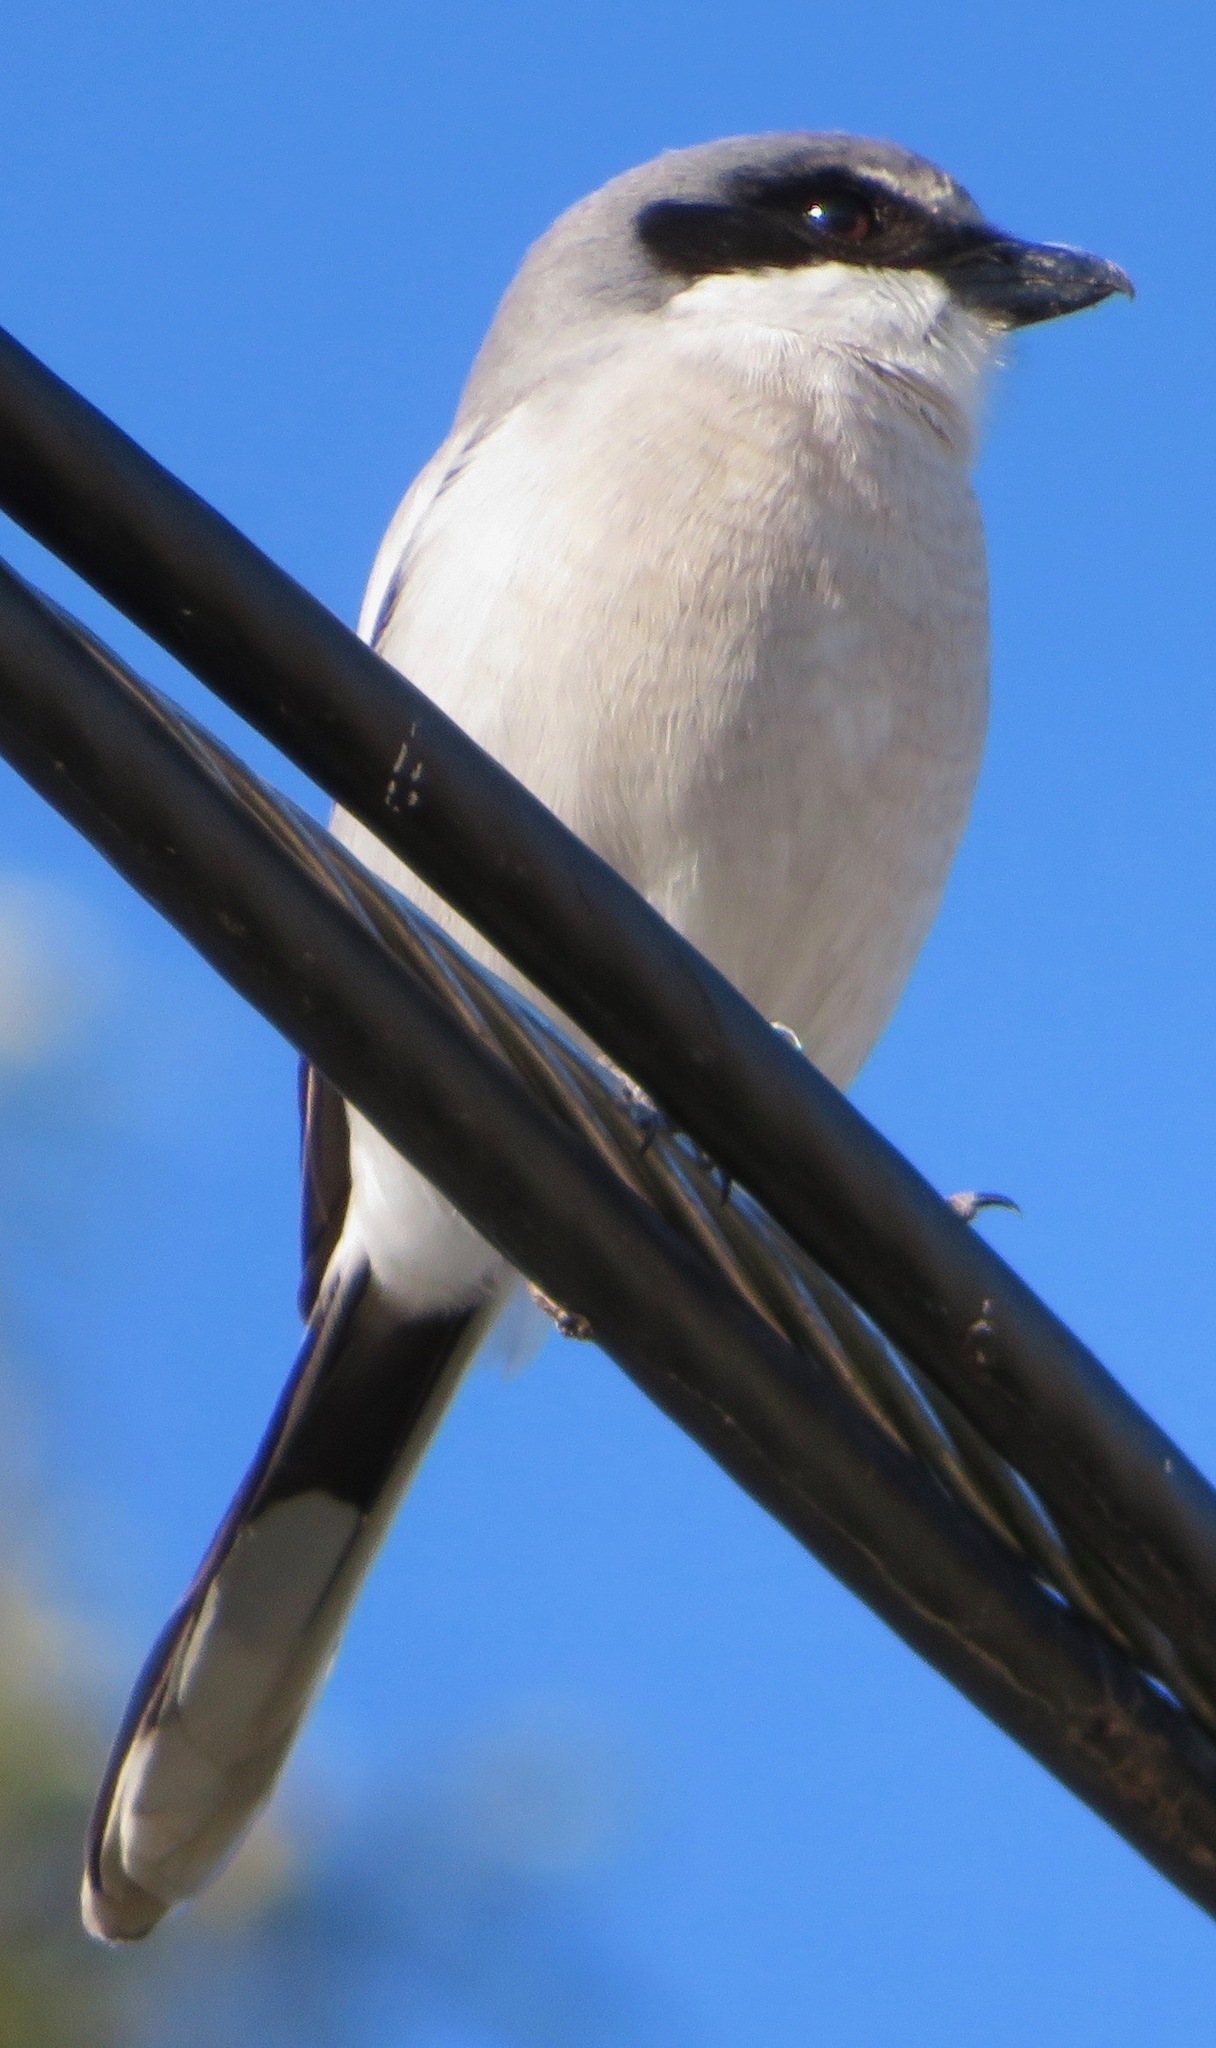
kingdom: Animalia
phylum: Chordata
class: Aves
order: Passeriformes
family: Laniidae
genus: Lanius
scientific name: Lanius ludovicianus
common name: Loggerhead shrike
